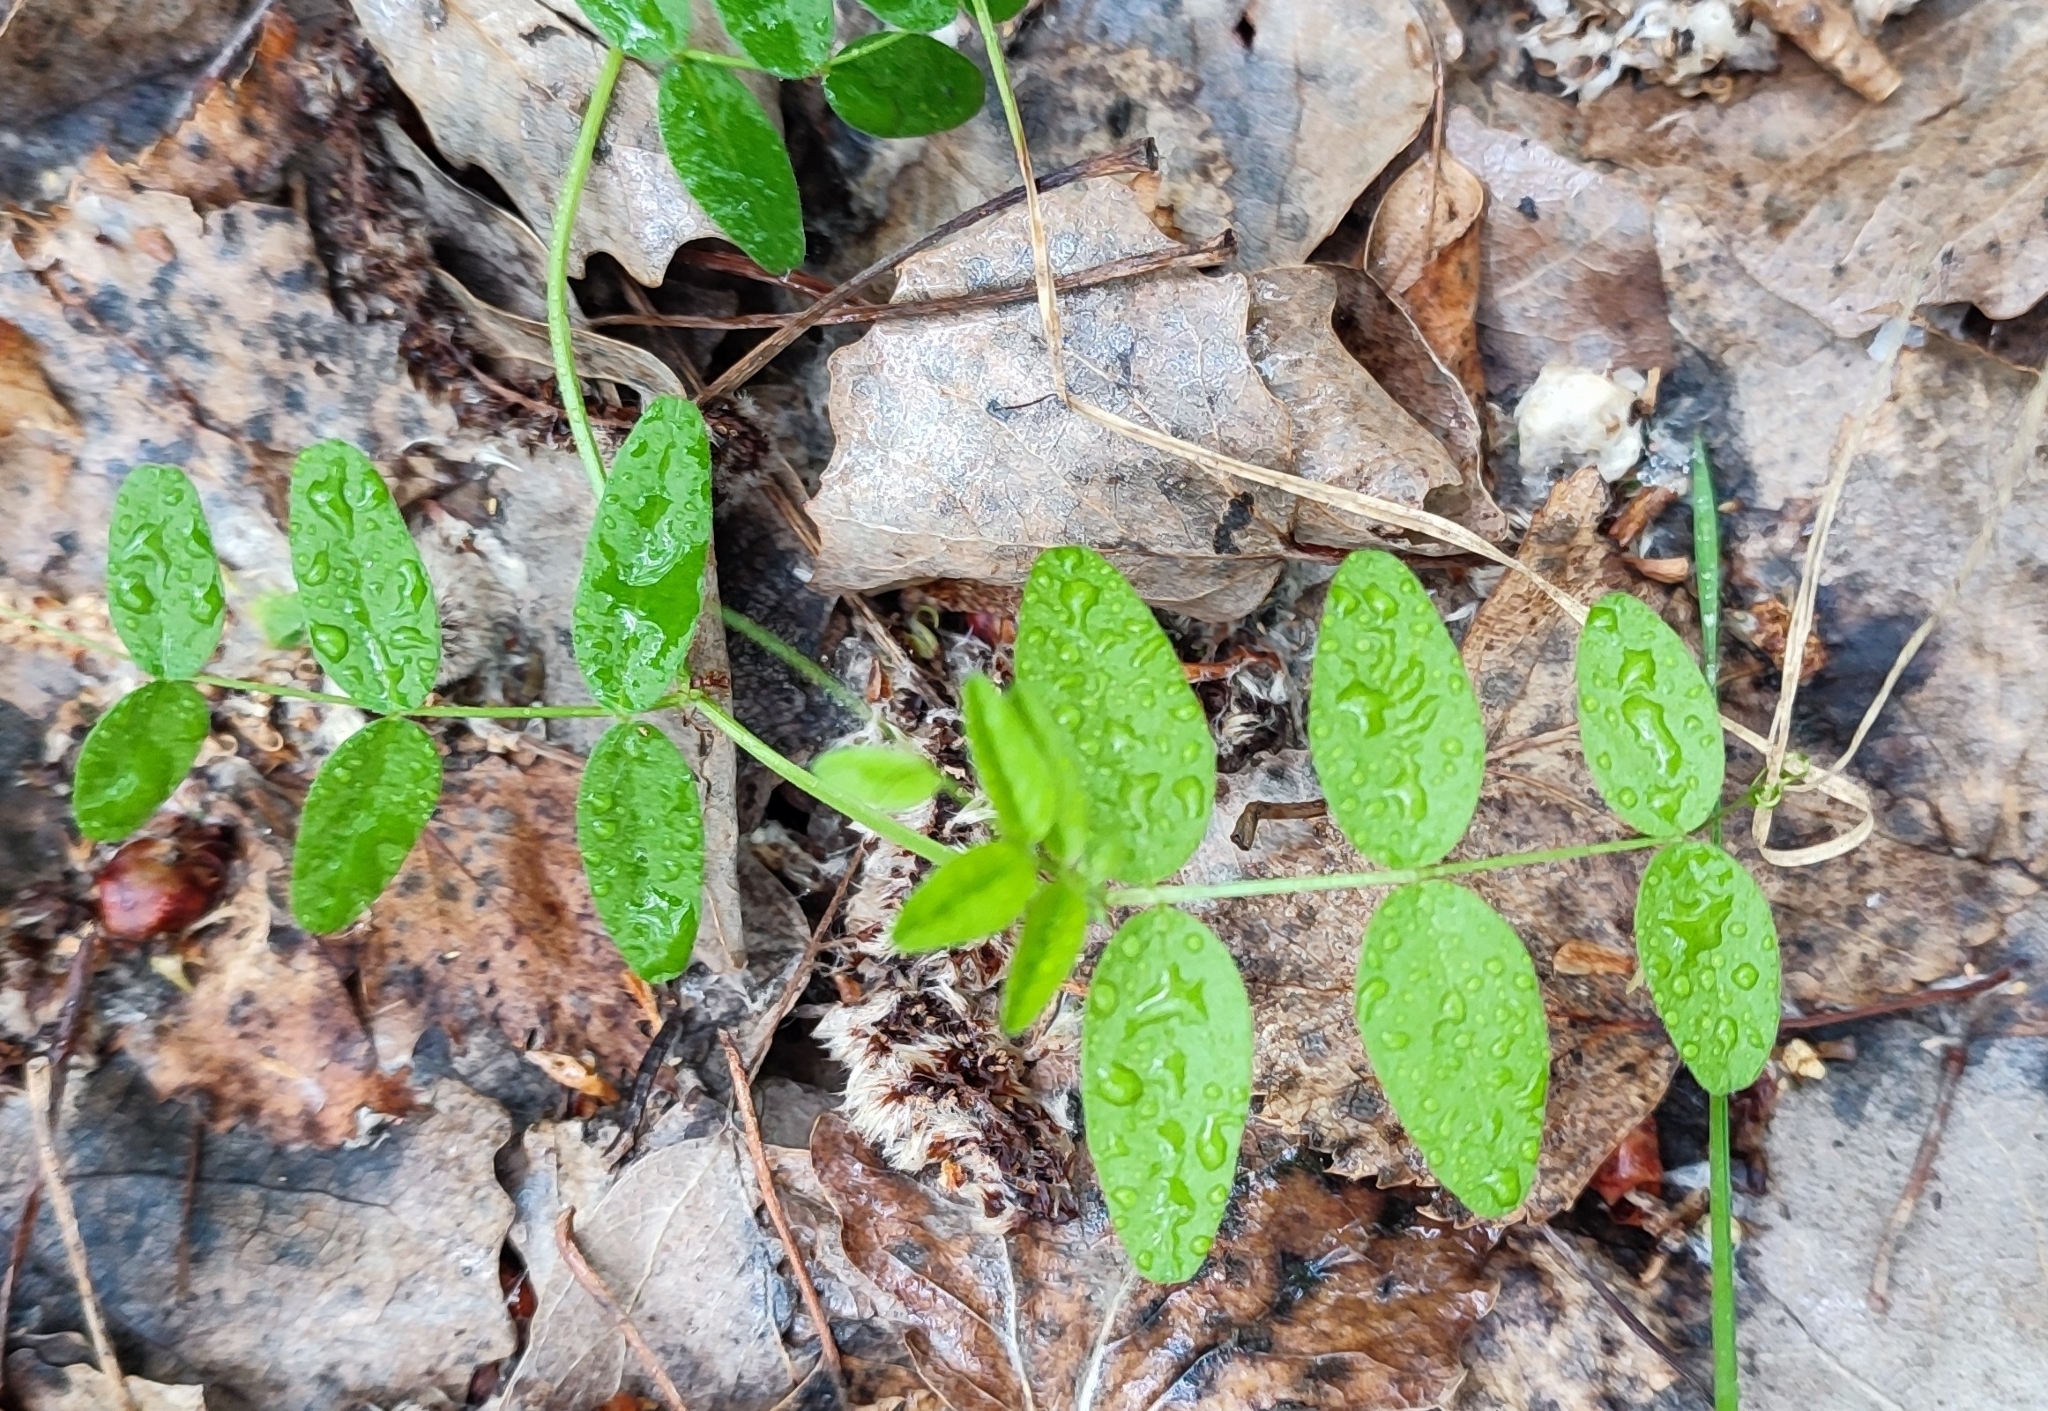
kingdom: Plantae
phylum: Tracheophyta
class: Magnoliopsida
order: Fabales
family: Fabaceae
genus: Vicia
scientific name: Vicia sepium
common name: Bush vetch
